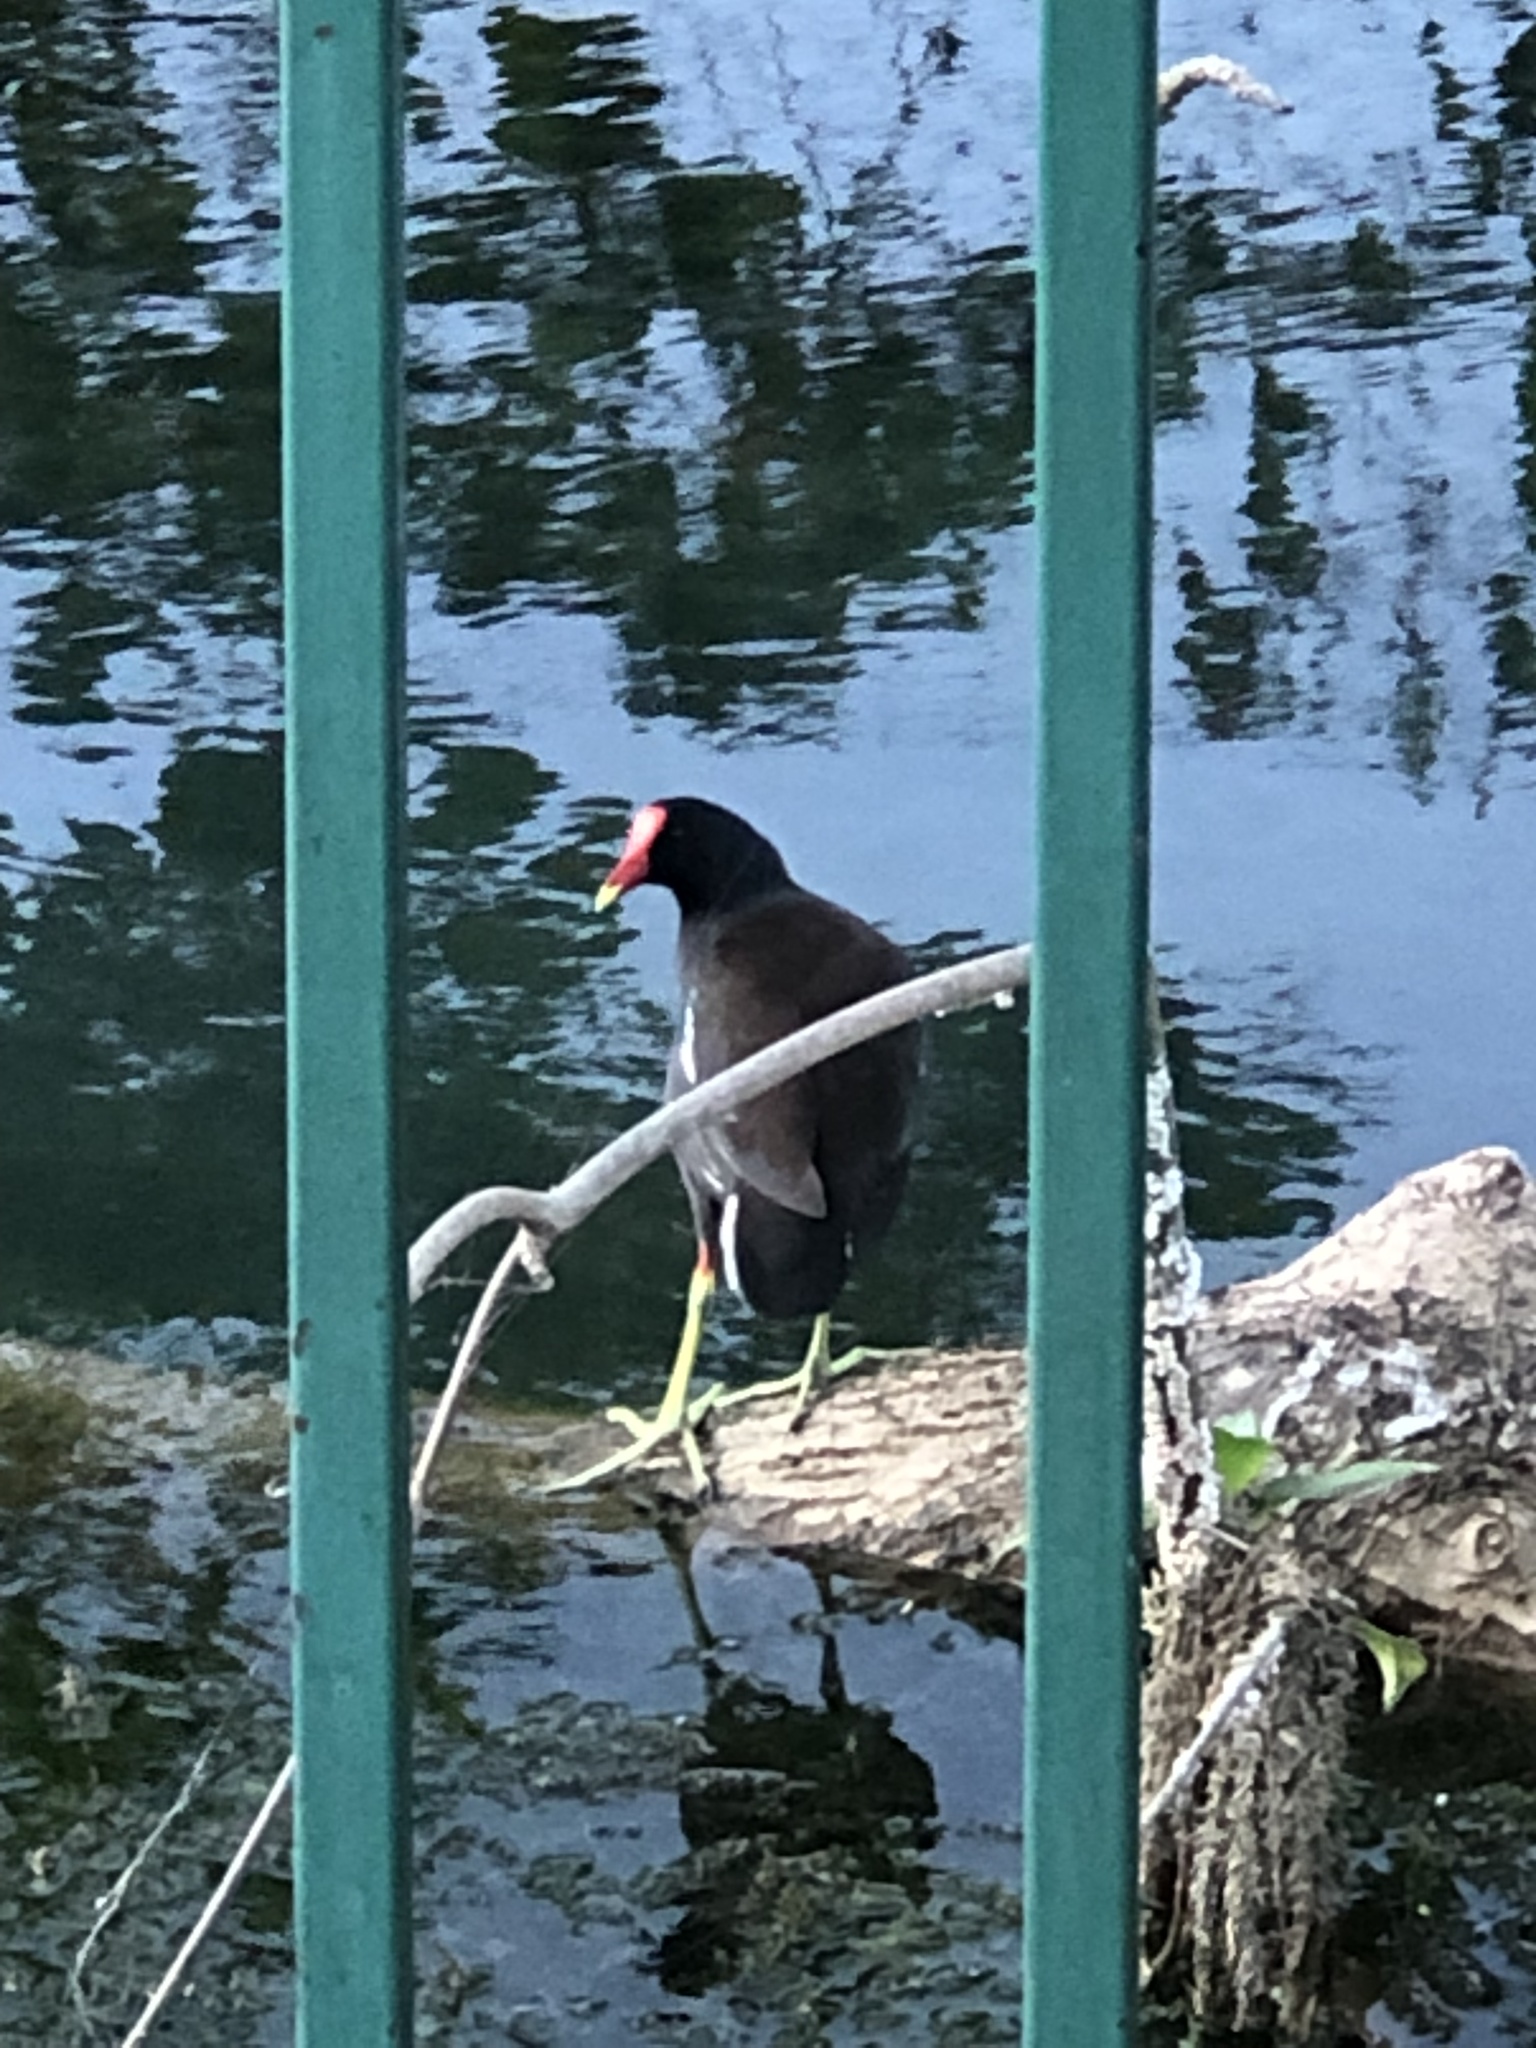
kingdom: Animalia
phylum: Chordata
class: Aves
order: Gruiformes
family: Rallidae
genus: Gallinula
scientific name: Gallinula chloropus
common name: Common moorhen
